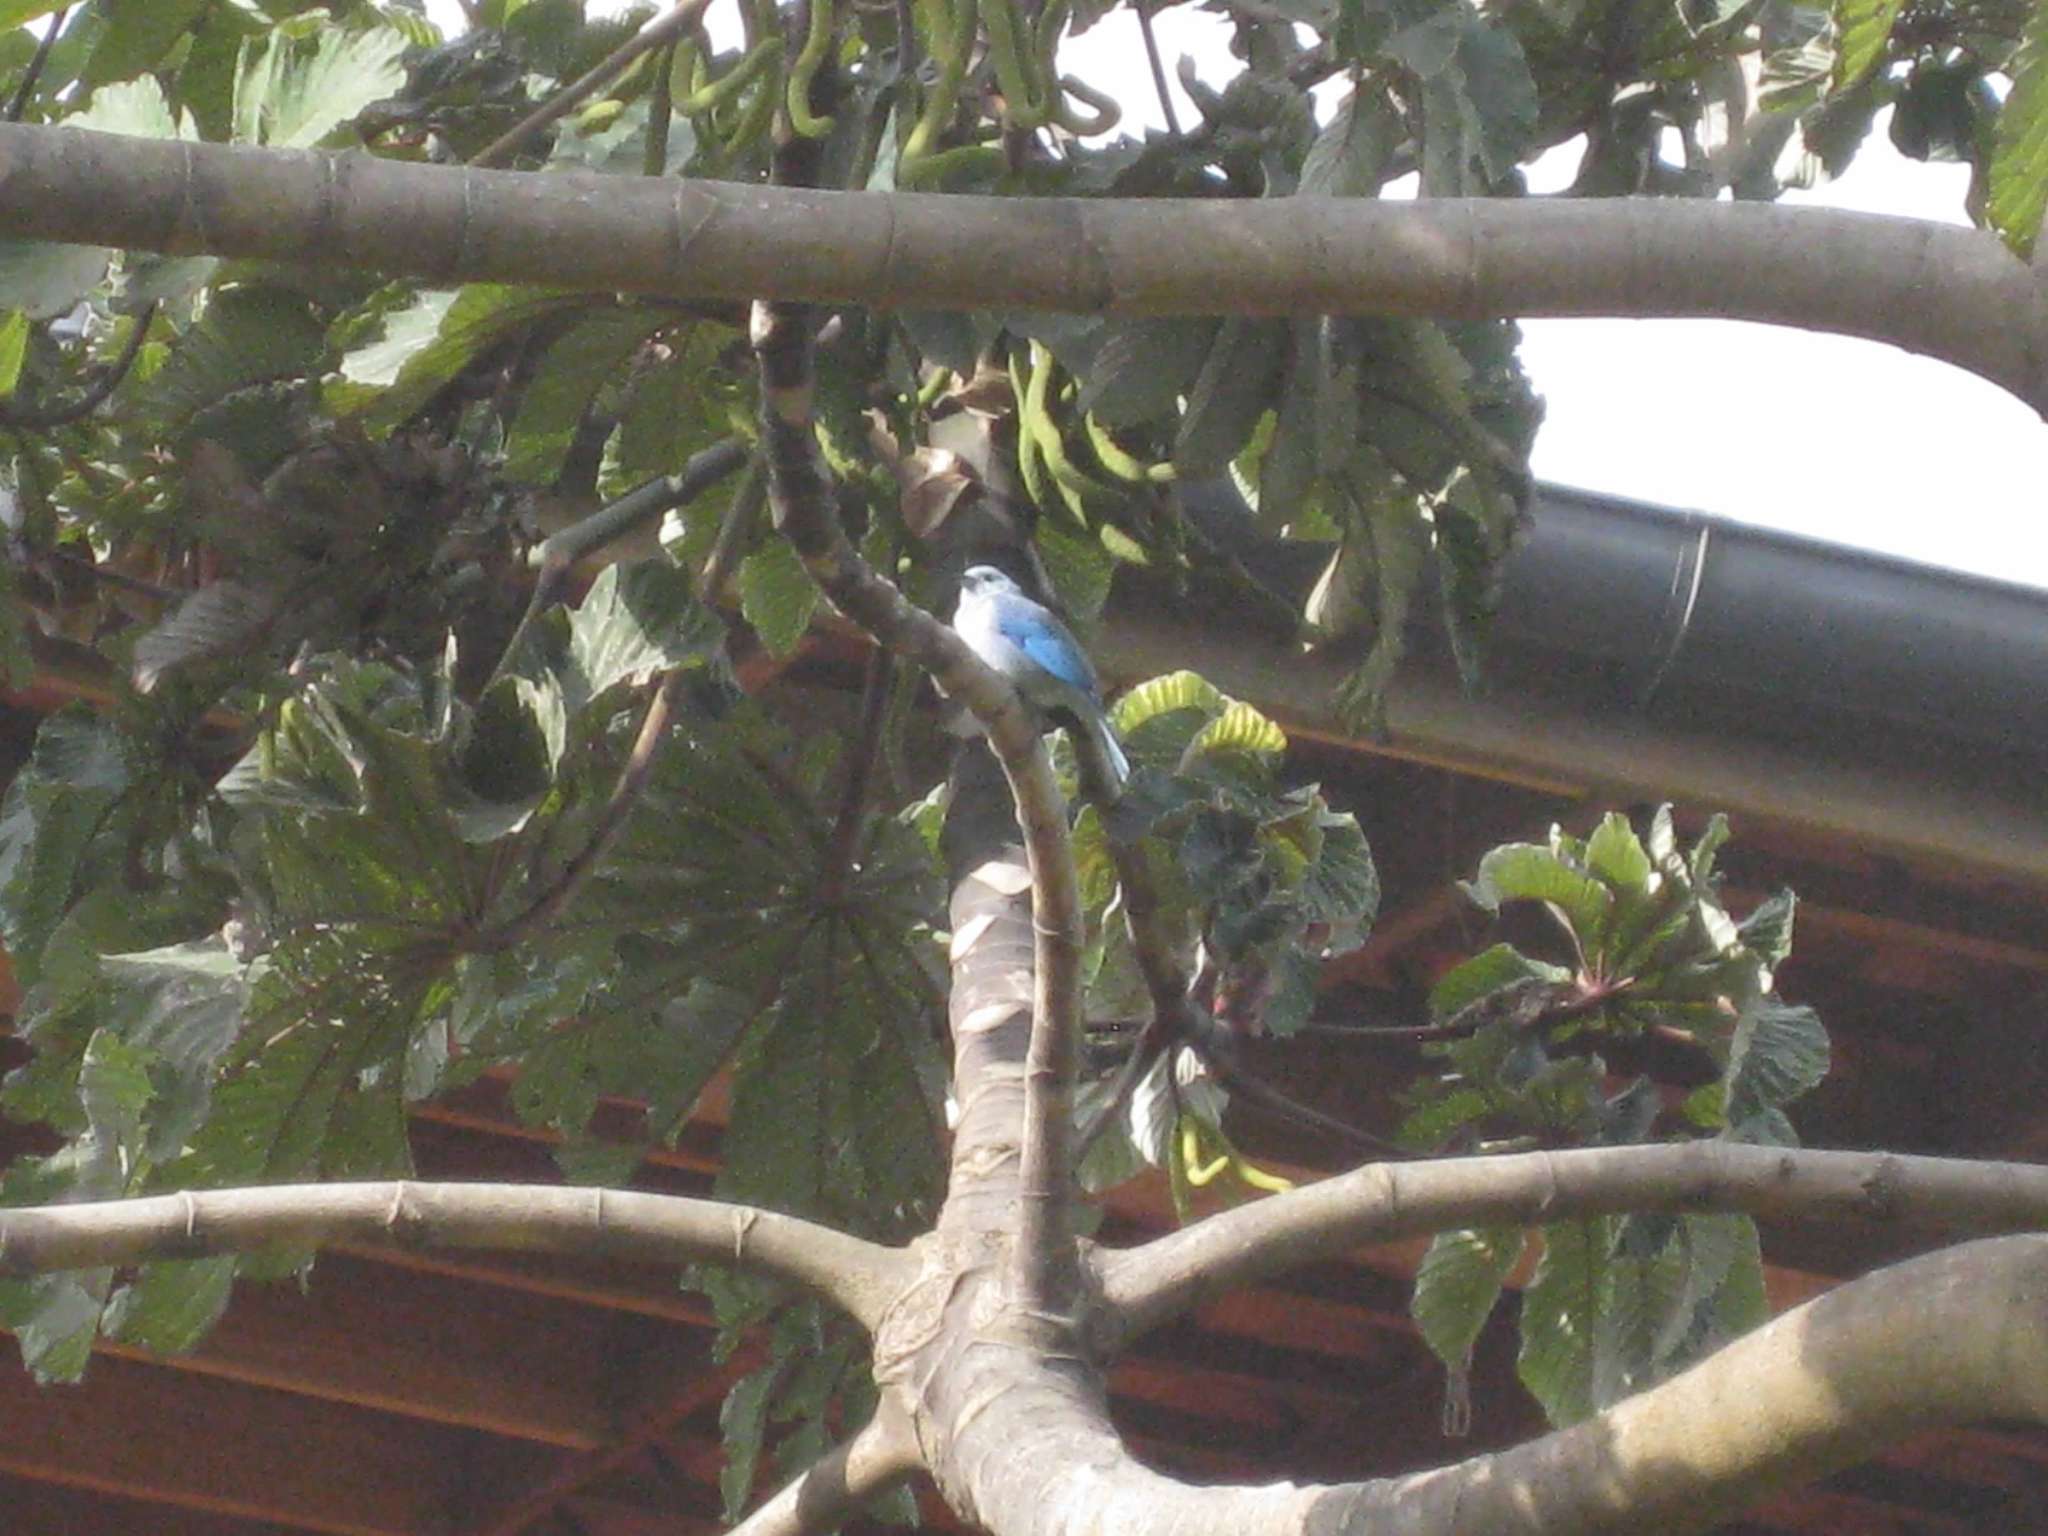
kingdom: Animalia
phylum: Chordata
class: Aves
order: Passeriformes
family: Thraupidae
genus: Thraupis
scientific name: Thraupis episcopus
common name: Blue-grey tanager
